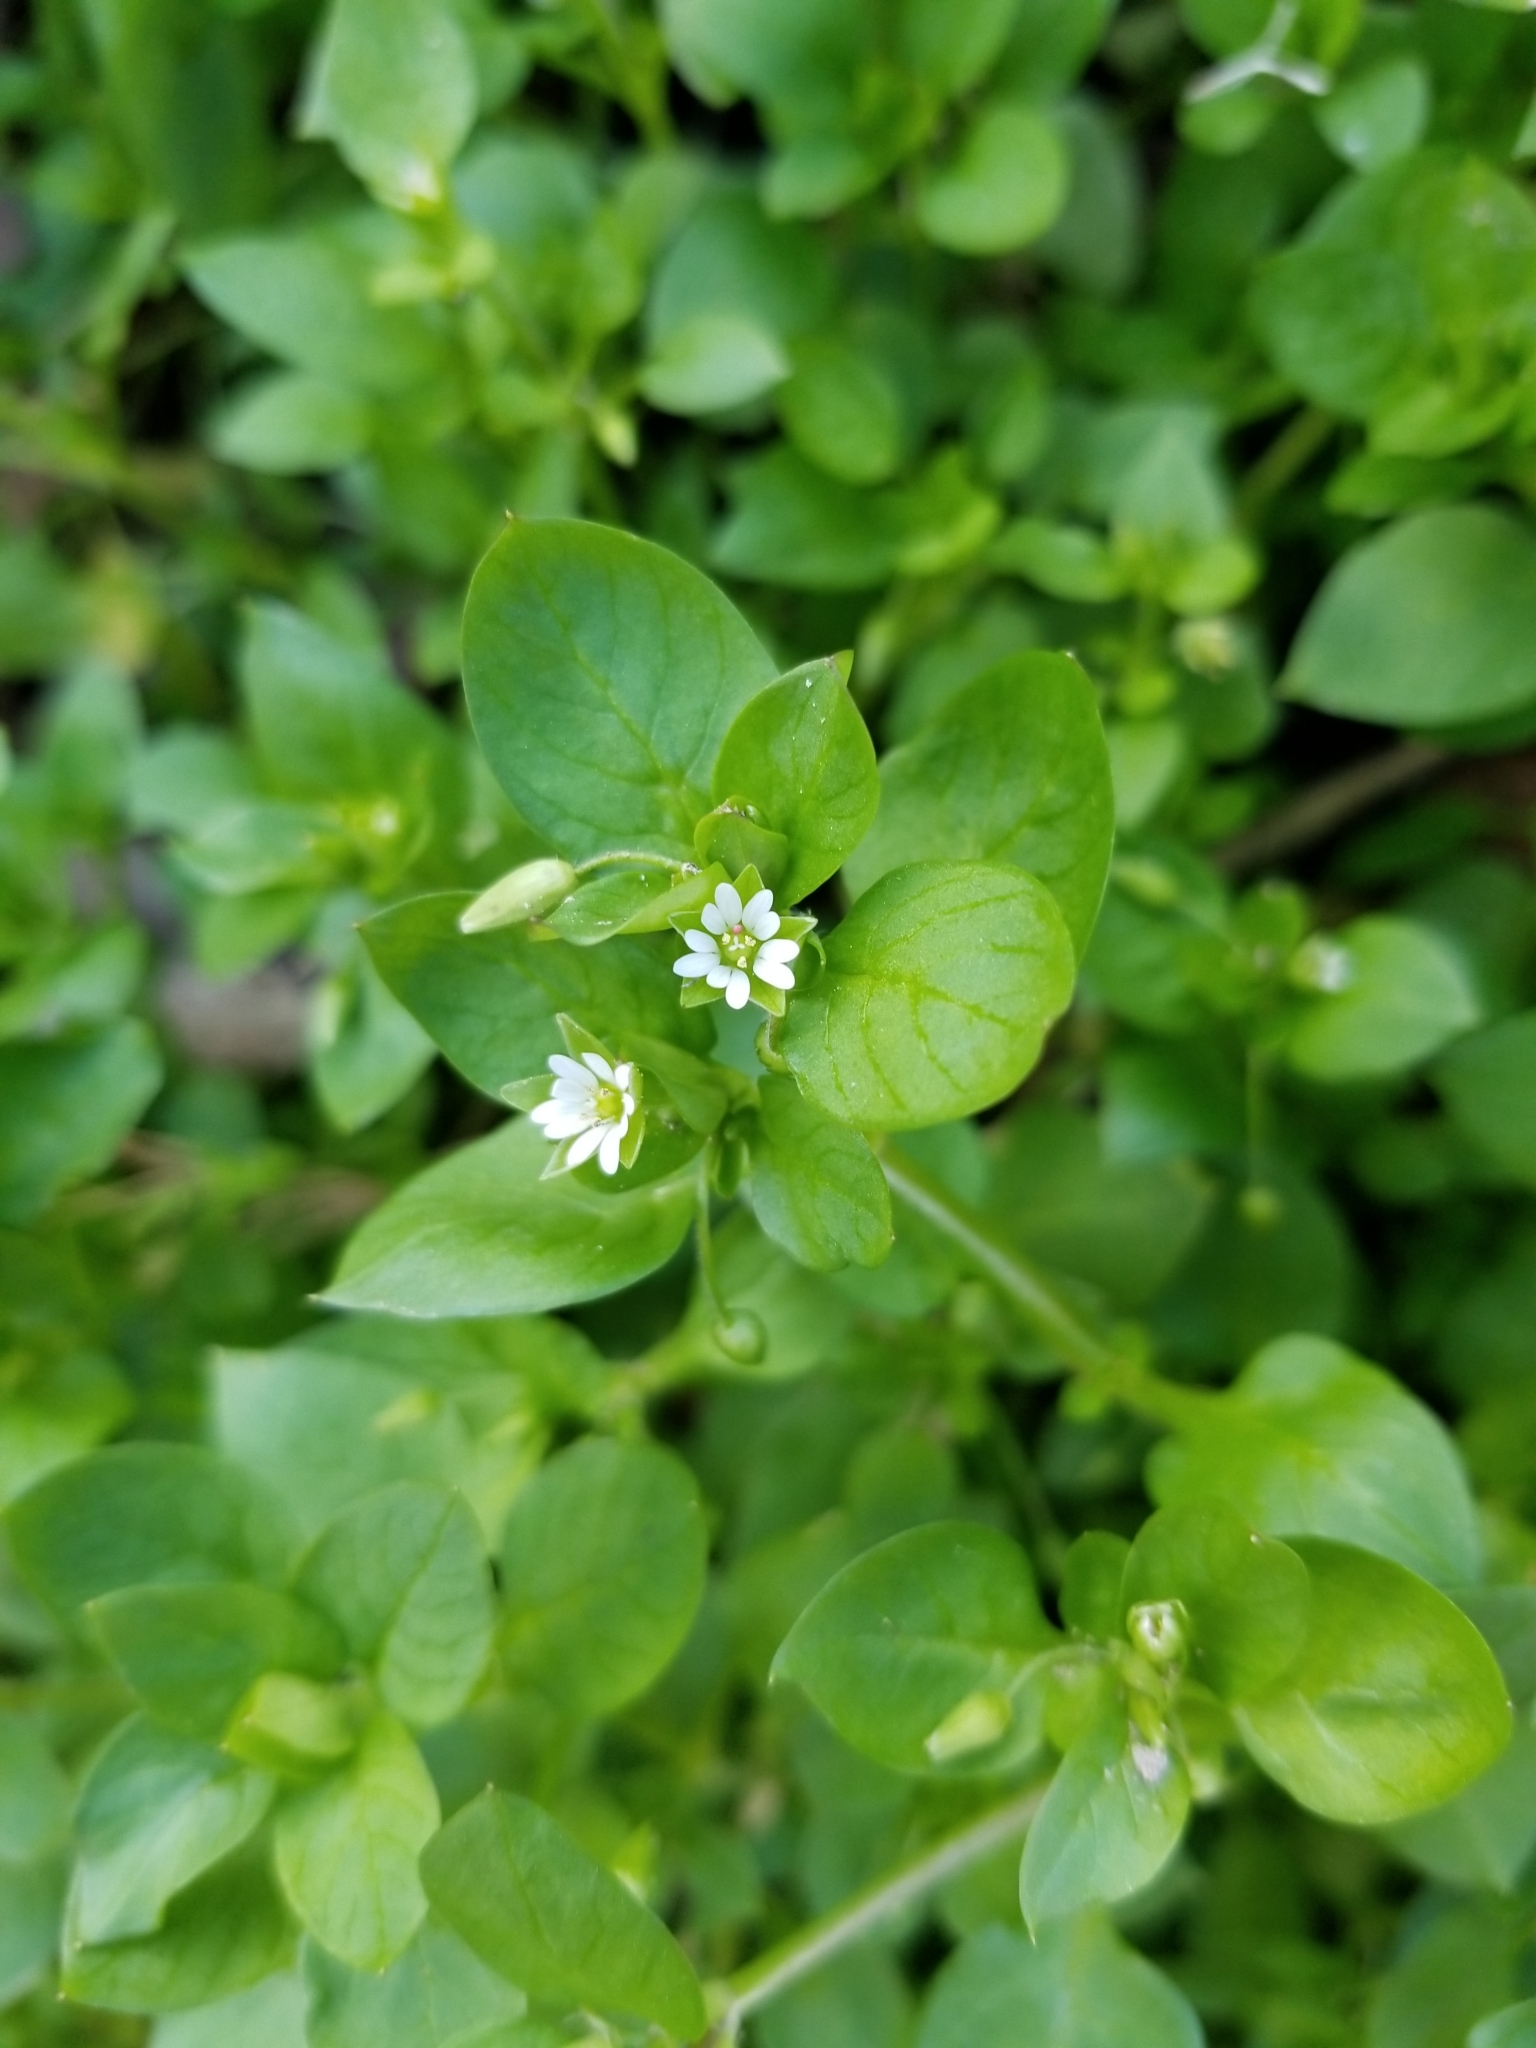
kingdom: Plantae
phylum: Tracheophyta
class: Magnoliopsida
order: Caryophyllales
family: Caryophyllaceae
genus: Stellaria
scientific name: Stellaria media
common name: Common chickweed
